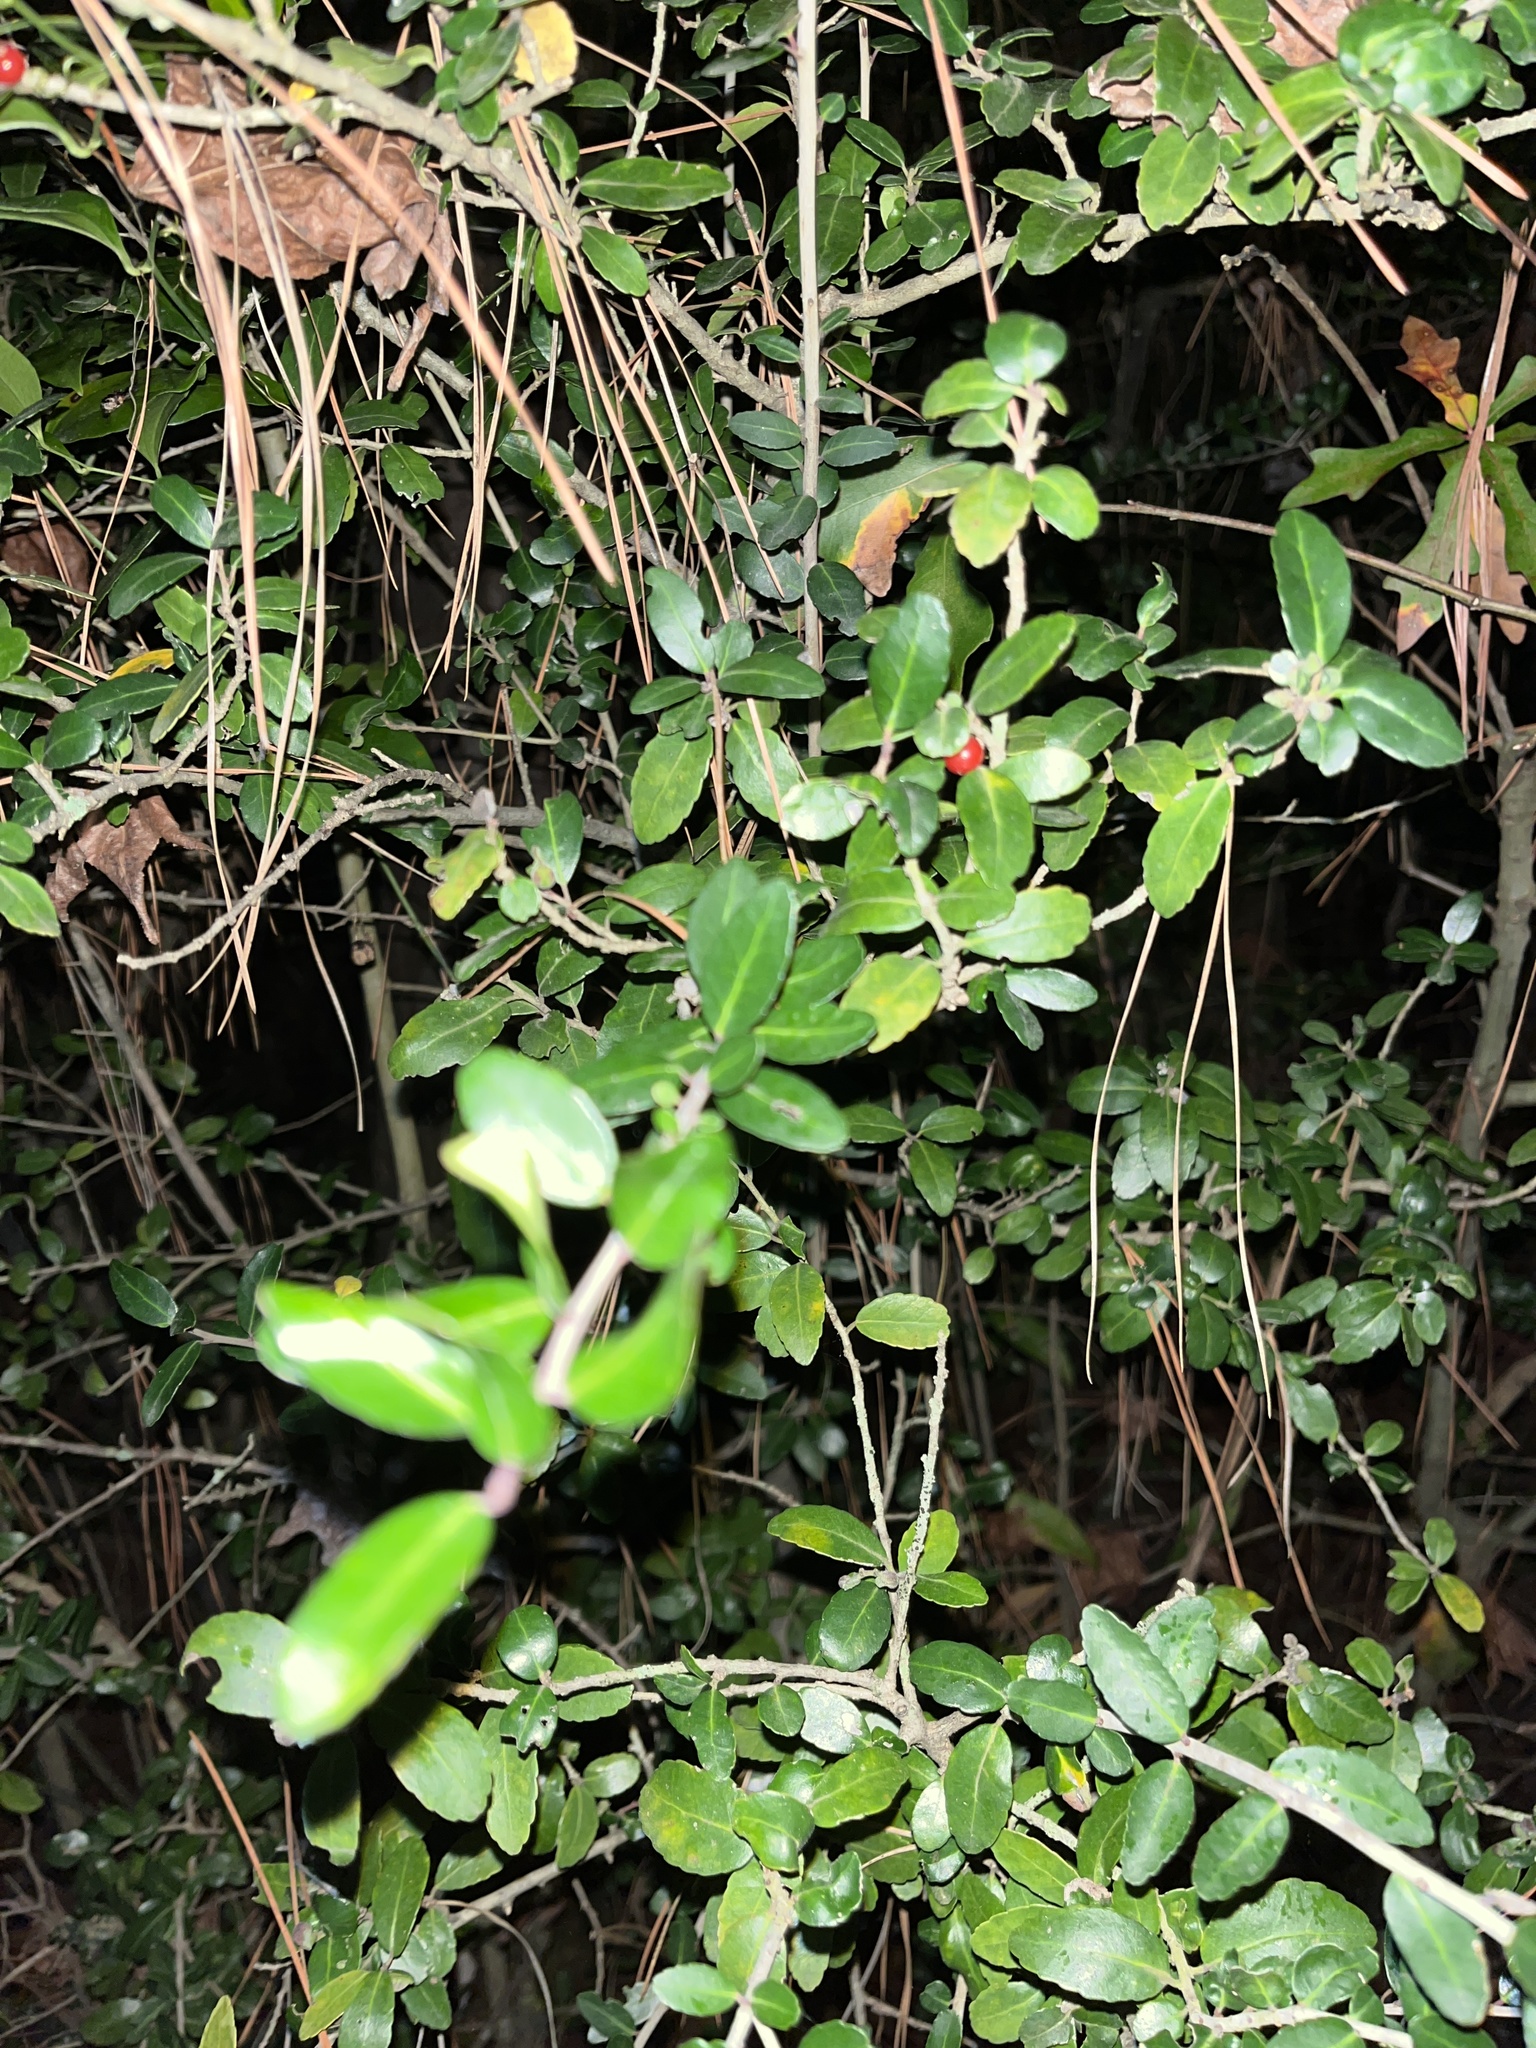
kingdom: Plantae
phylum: Tracheophyta
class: Magnoliopsida
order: Aquifoliales
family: Aquifoliaceae
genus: Ilex
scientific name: Ilex vomitoria
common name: Yaupon holly
